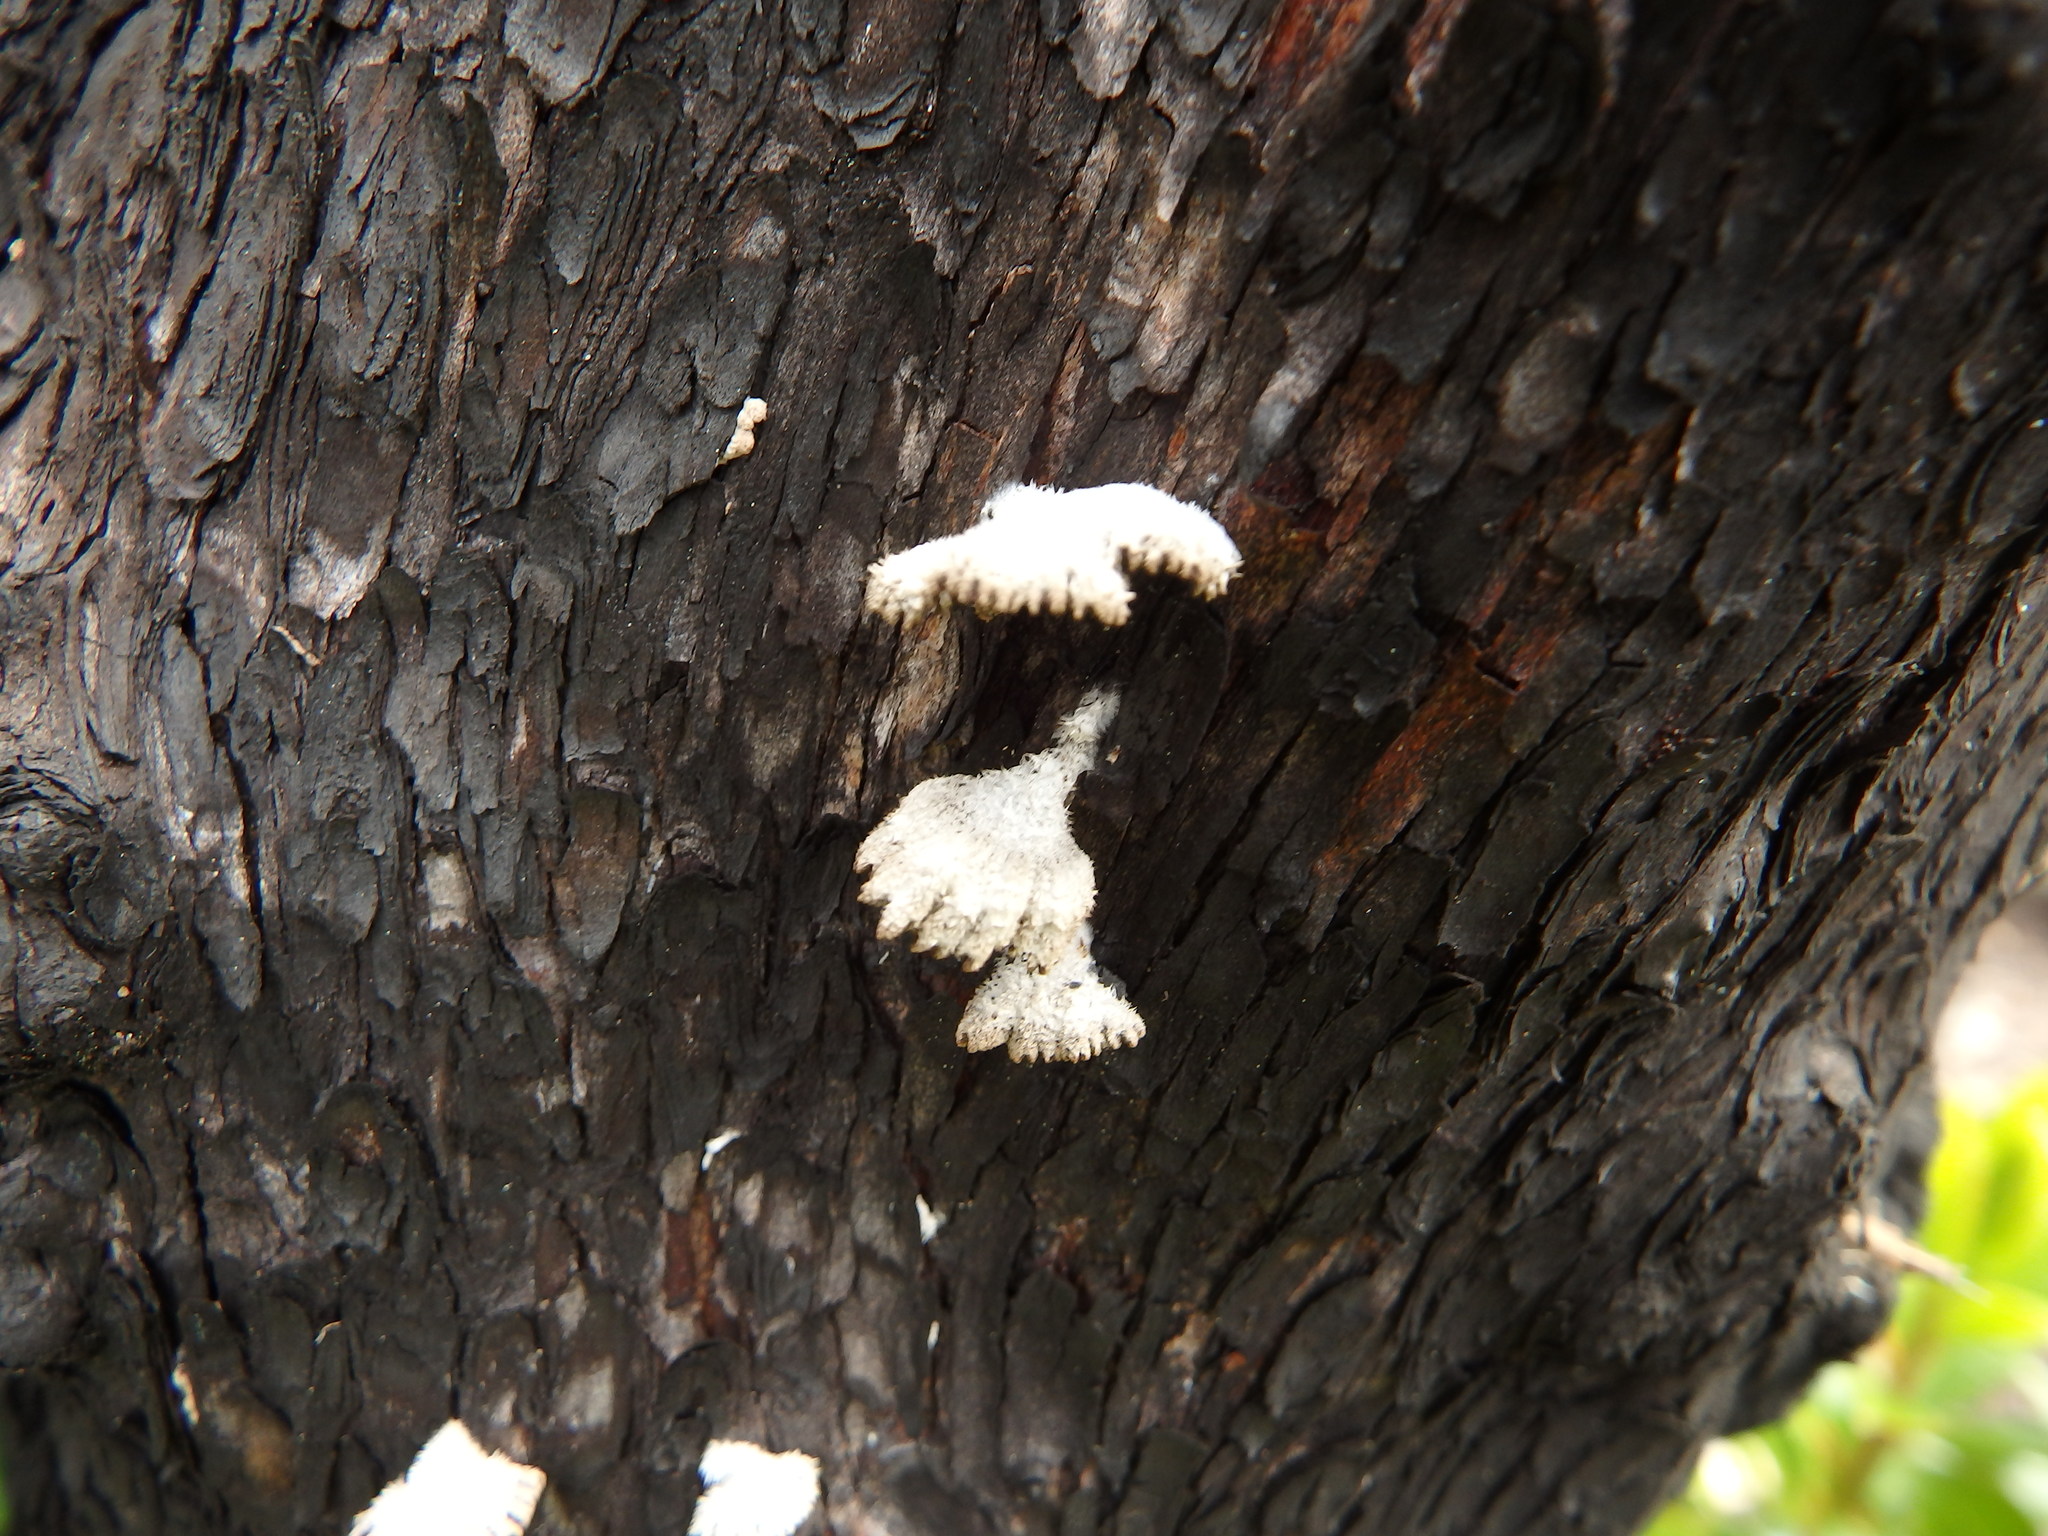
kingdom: Fungi
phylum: Basidiomycota
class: Agaricomycetes
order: Agaricales
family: Schizophyllaceae
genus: Schizophyllum
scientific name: Schizophyllum commune
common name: Common porecrust
